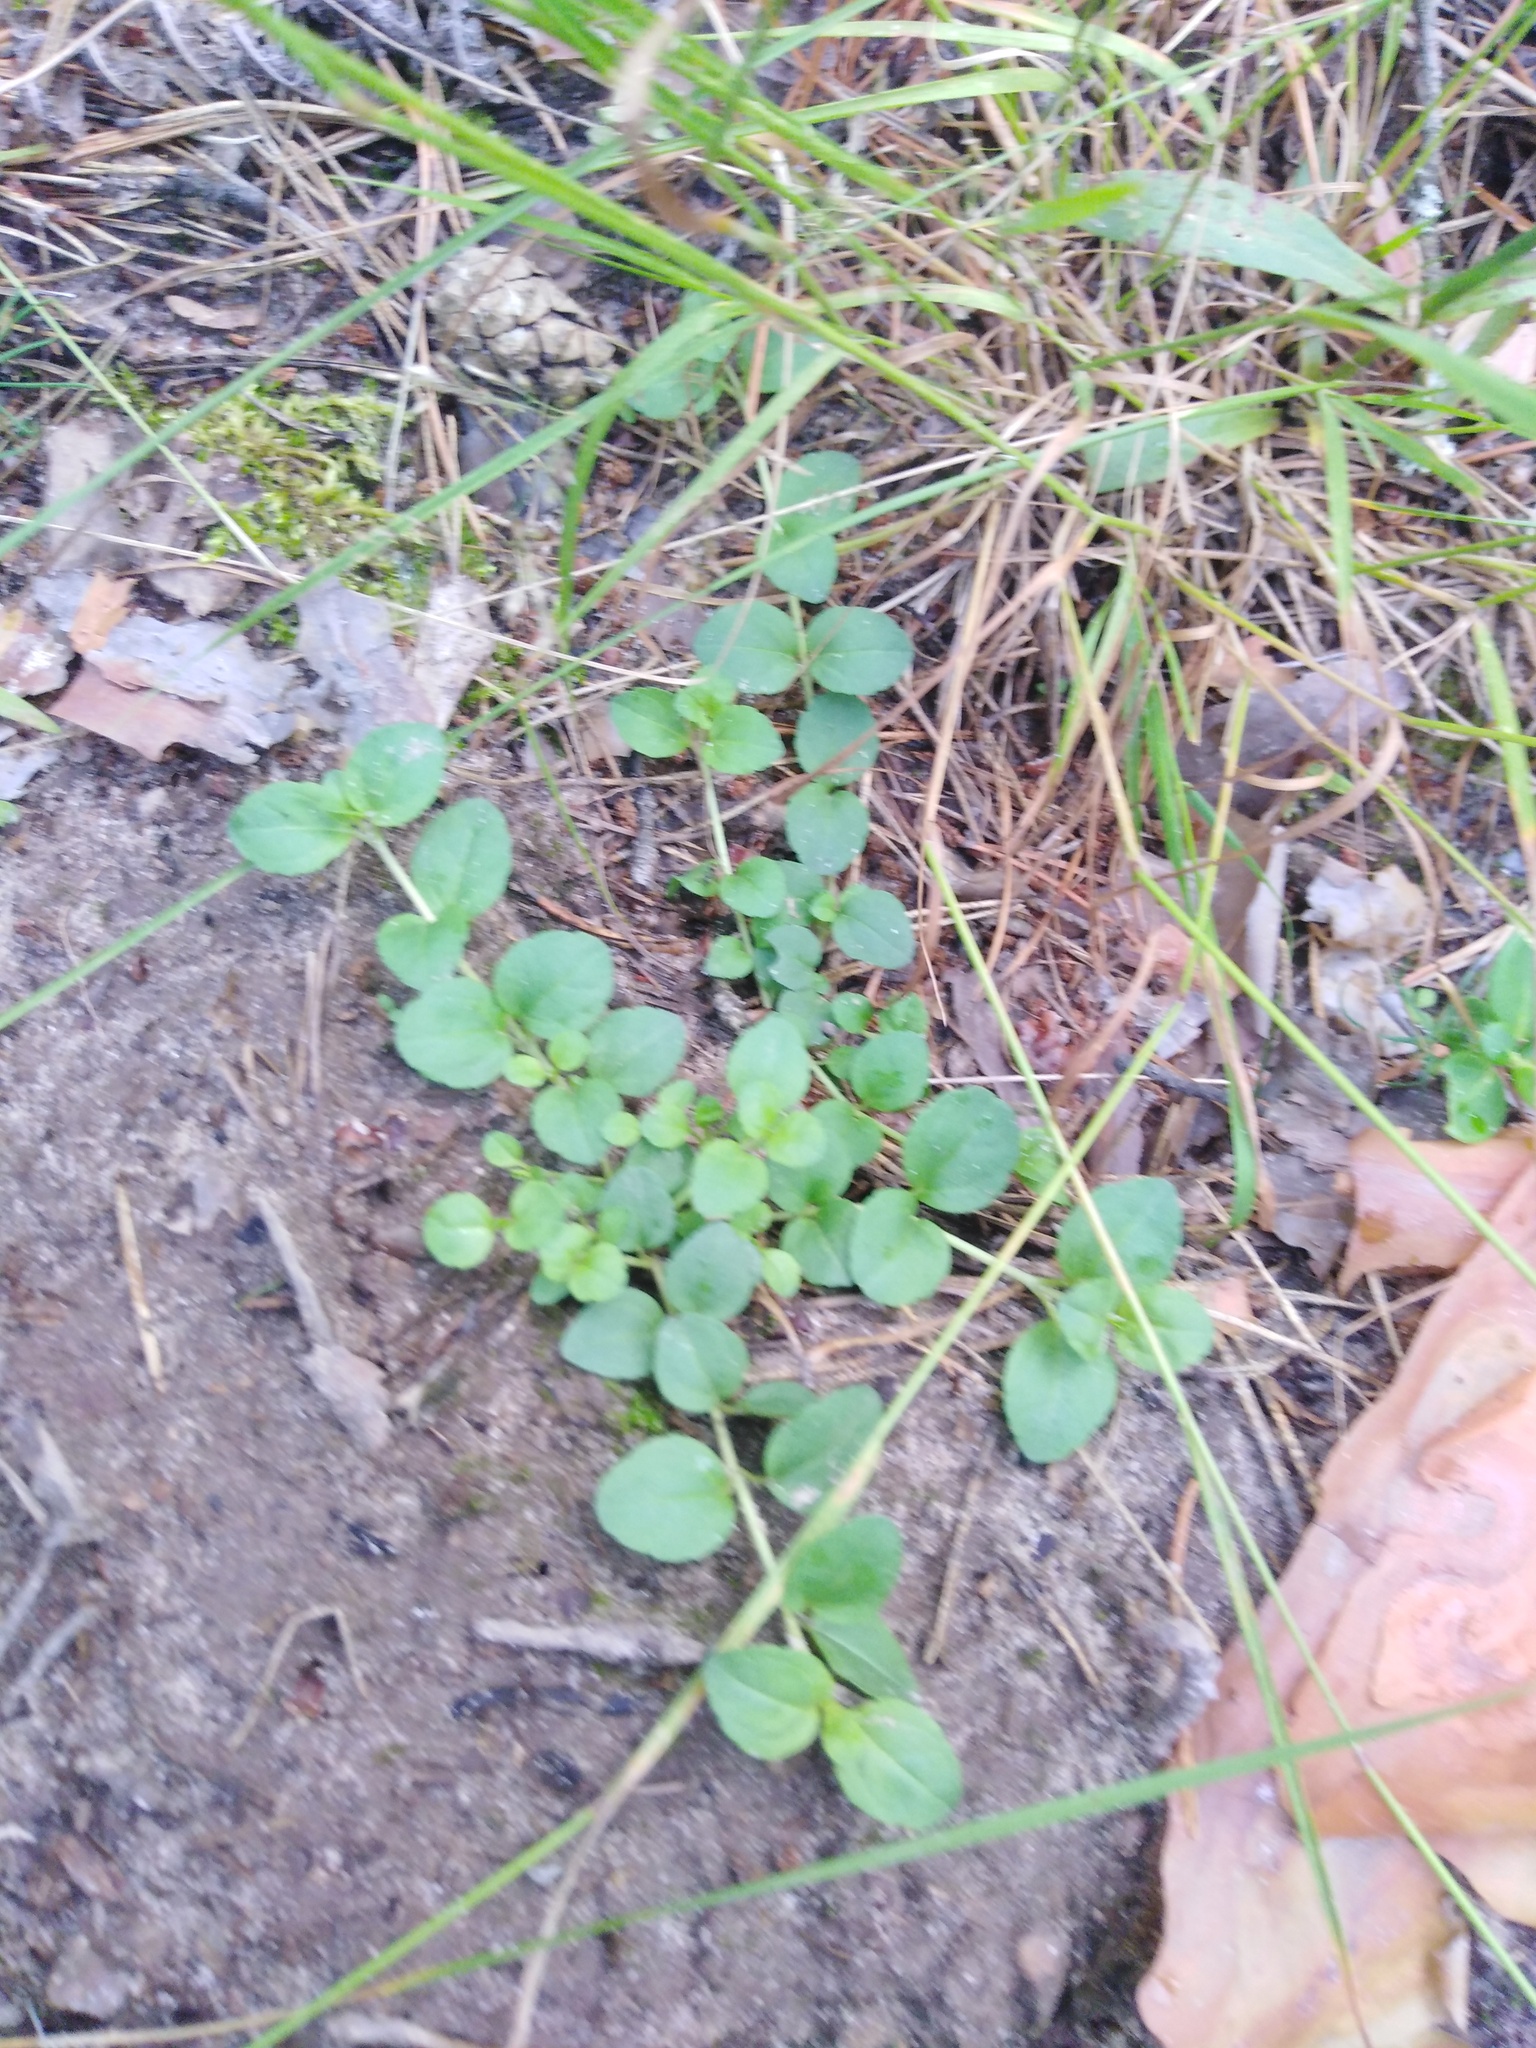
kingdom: Plantae
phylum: Tracheophyta
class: Magnoliopsida
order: Ericales
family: Primulaceae
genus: Lysimachia
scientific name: Lysimachia nummularia
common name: Moneywort
